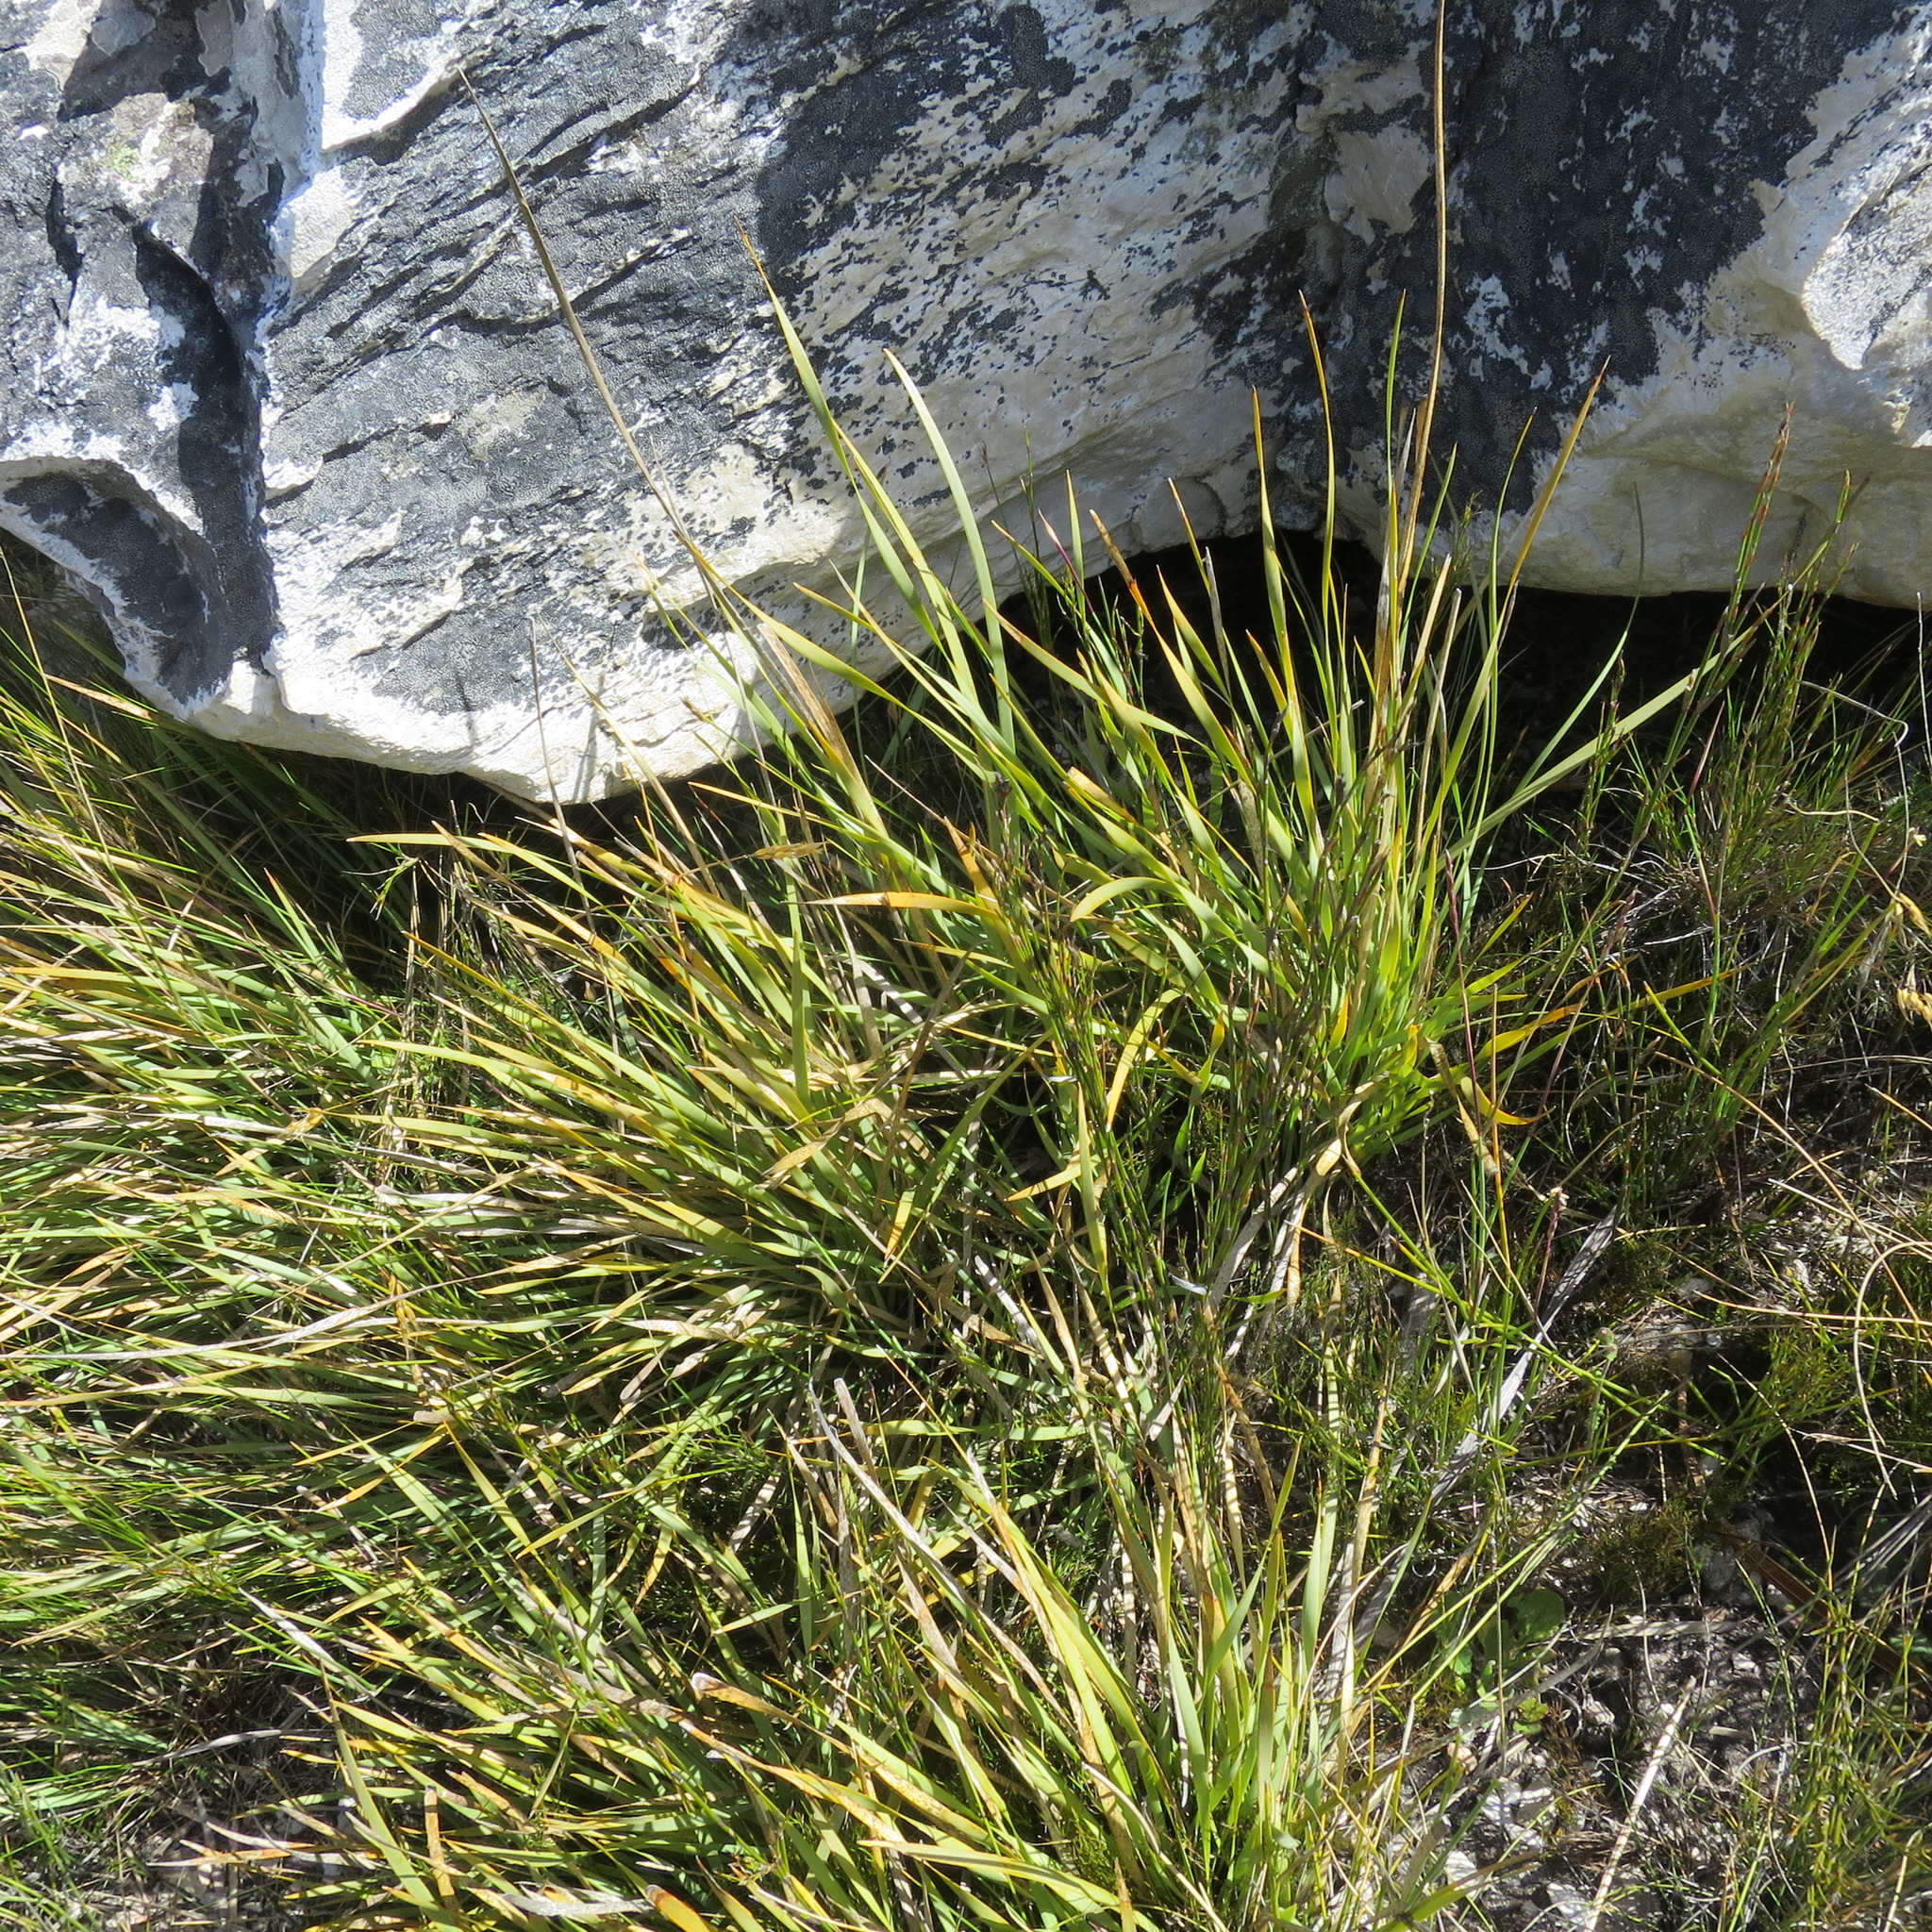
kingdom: Plantae
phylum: Tracheophyta
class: Liliopsida
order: Asparagales
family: Iridaceae
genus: Bobartia
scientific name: Bobartia paniculata
